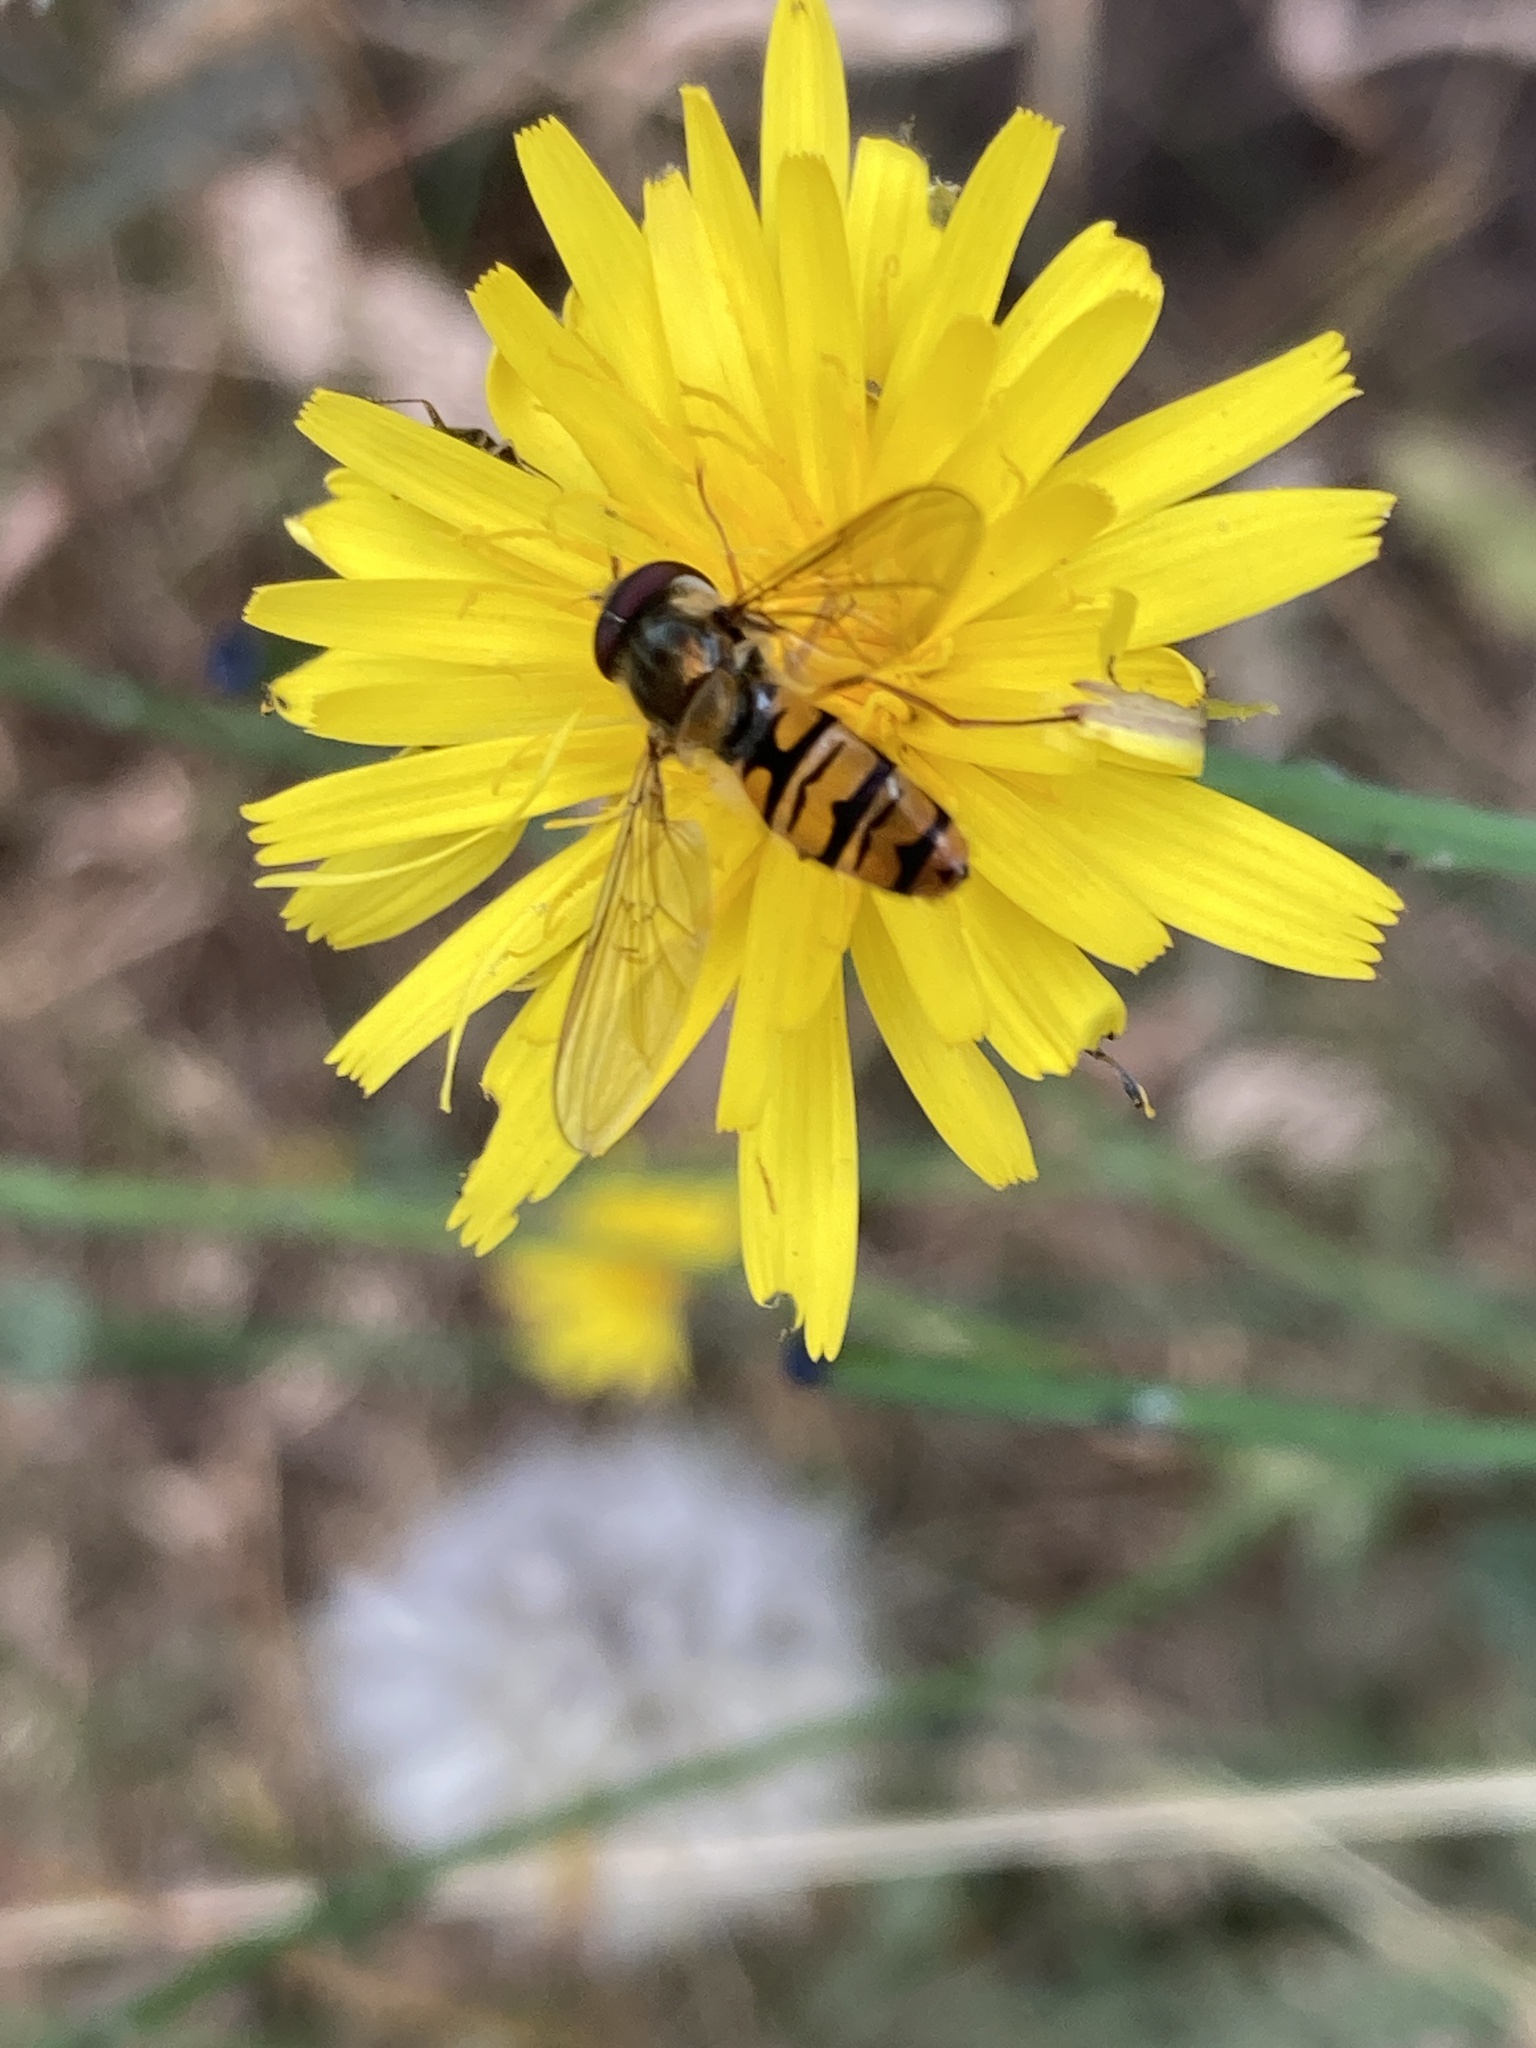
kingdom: Animalia
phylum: Arthropoda
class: Insecta
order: Diptera
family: Syrphidae
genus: Episyrphus
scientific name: Episyrphus balteatus
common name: Marmalade hoverfly
